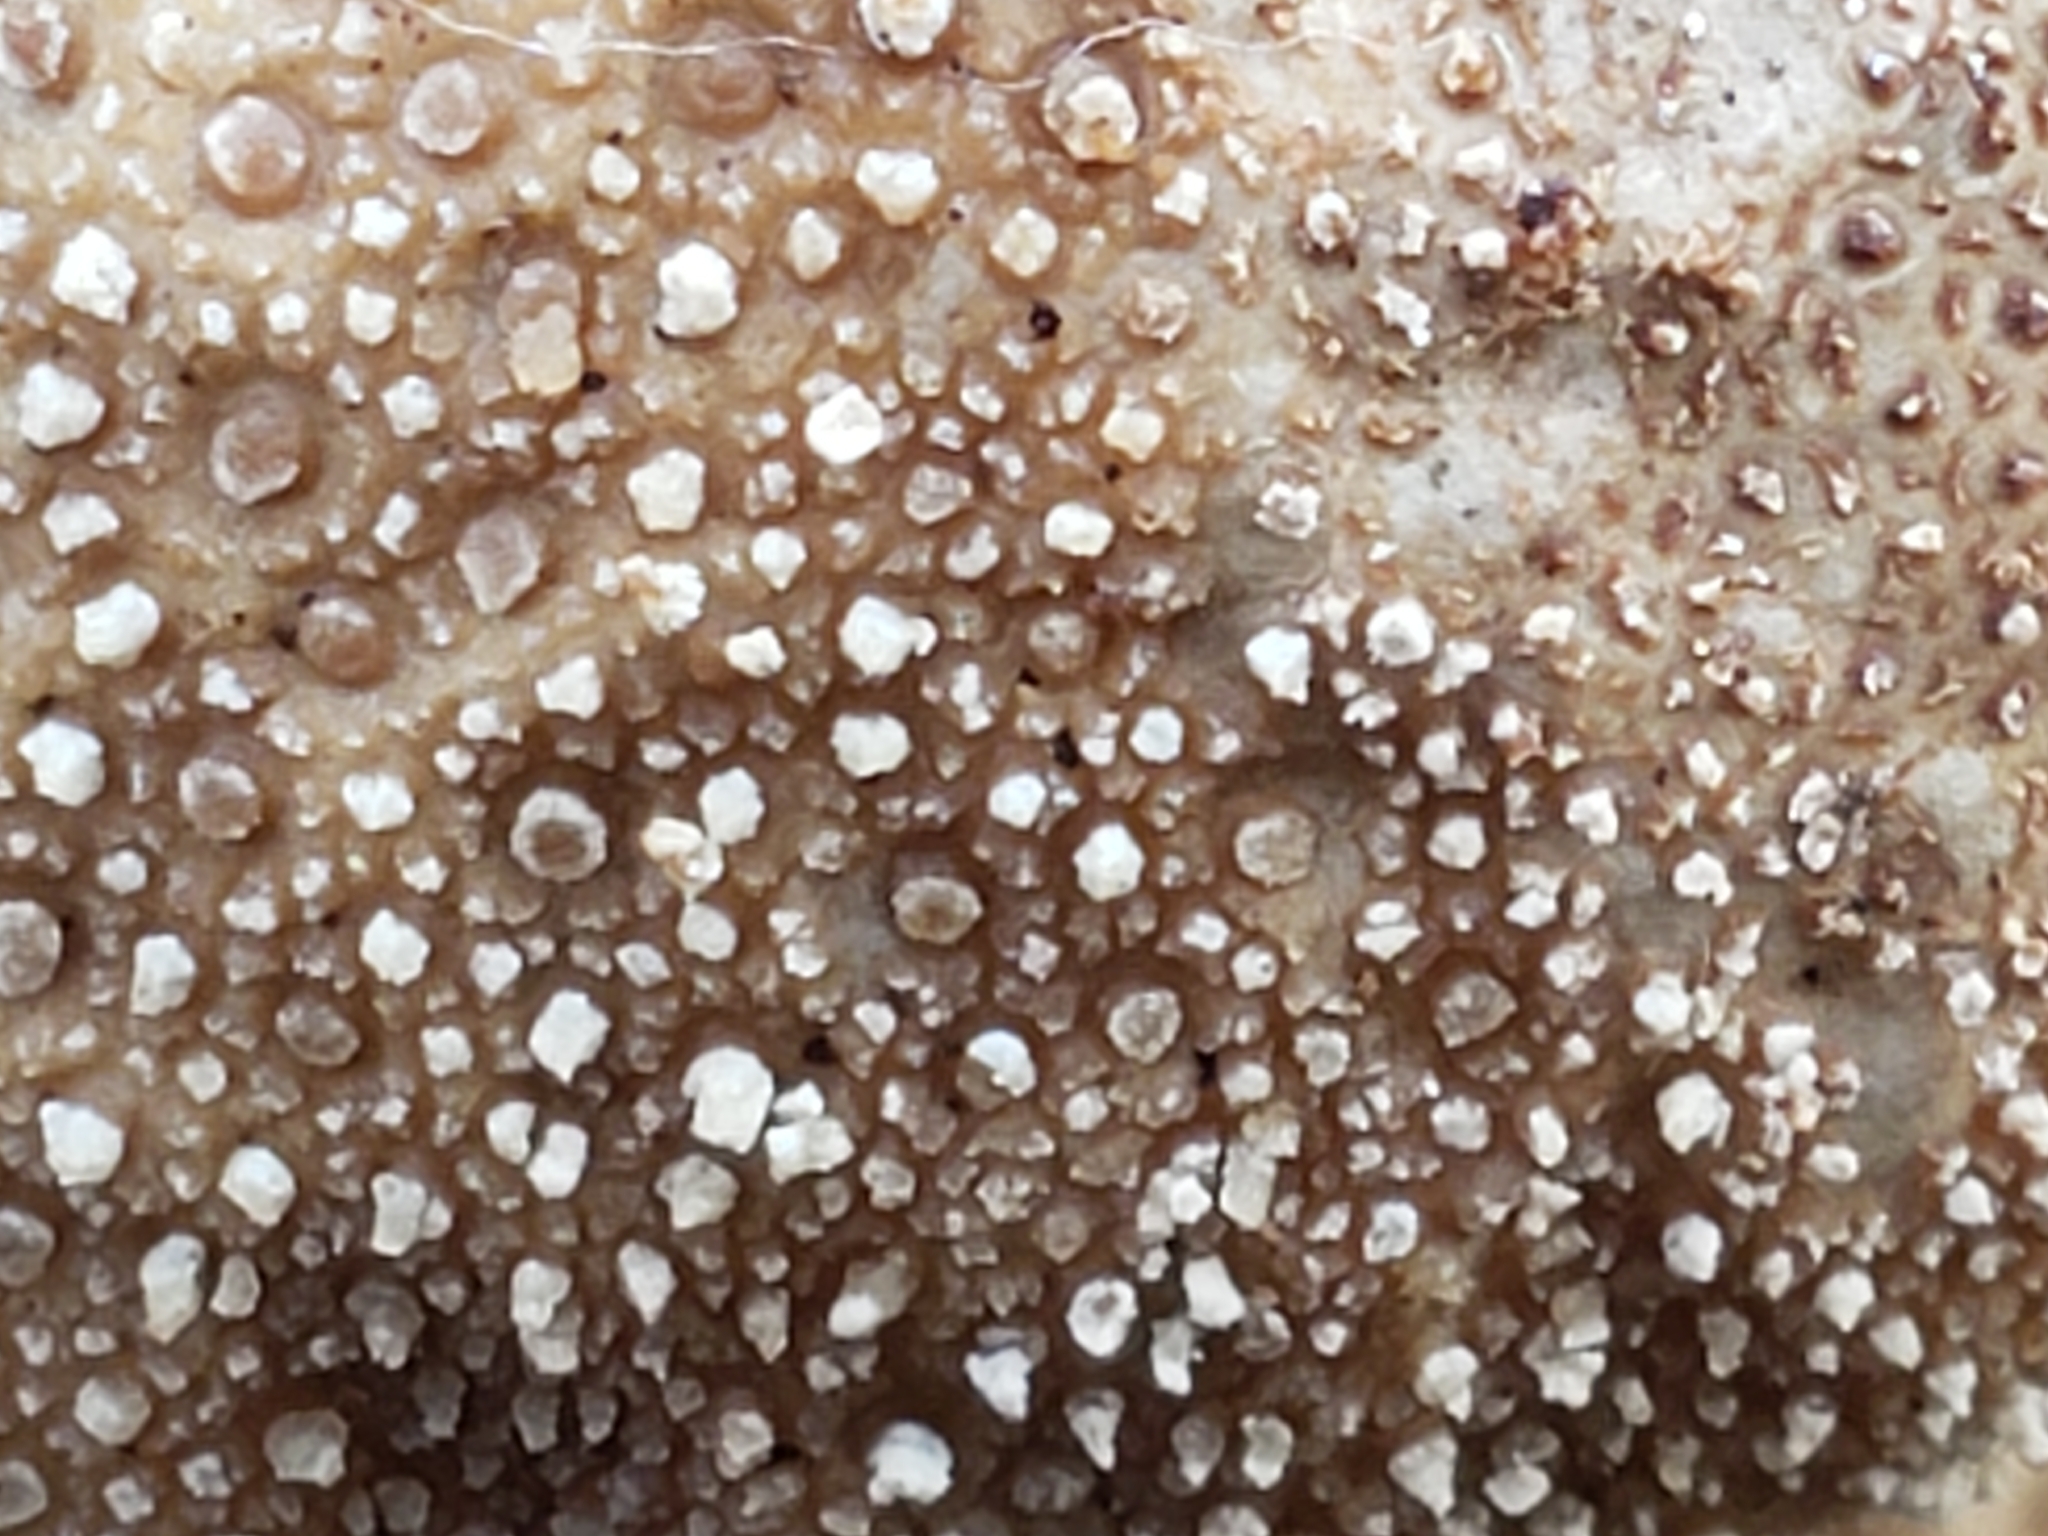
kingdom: Fungi
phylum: Basidiomycota
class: Agaricomycetes
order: Agaricales
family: Lycoperdaceae
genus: Lycoperdon
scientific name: Lycoperdon perlatum
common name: Common puffball
